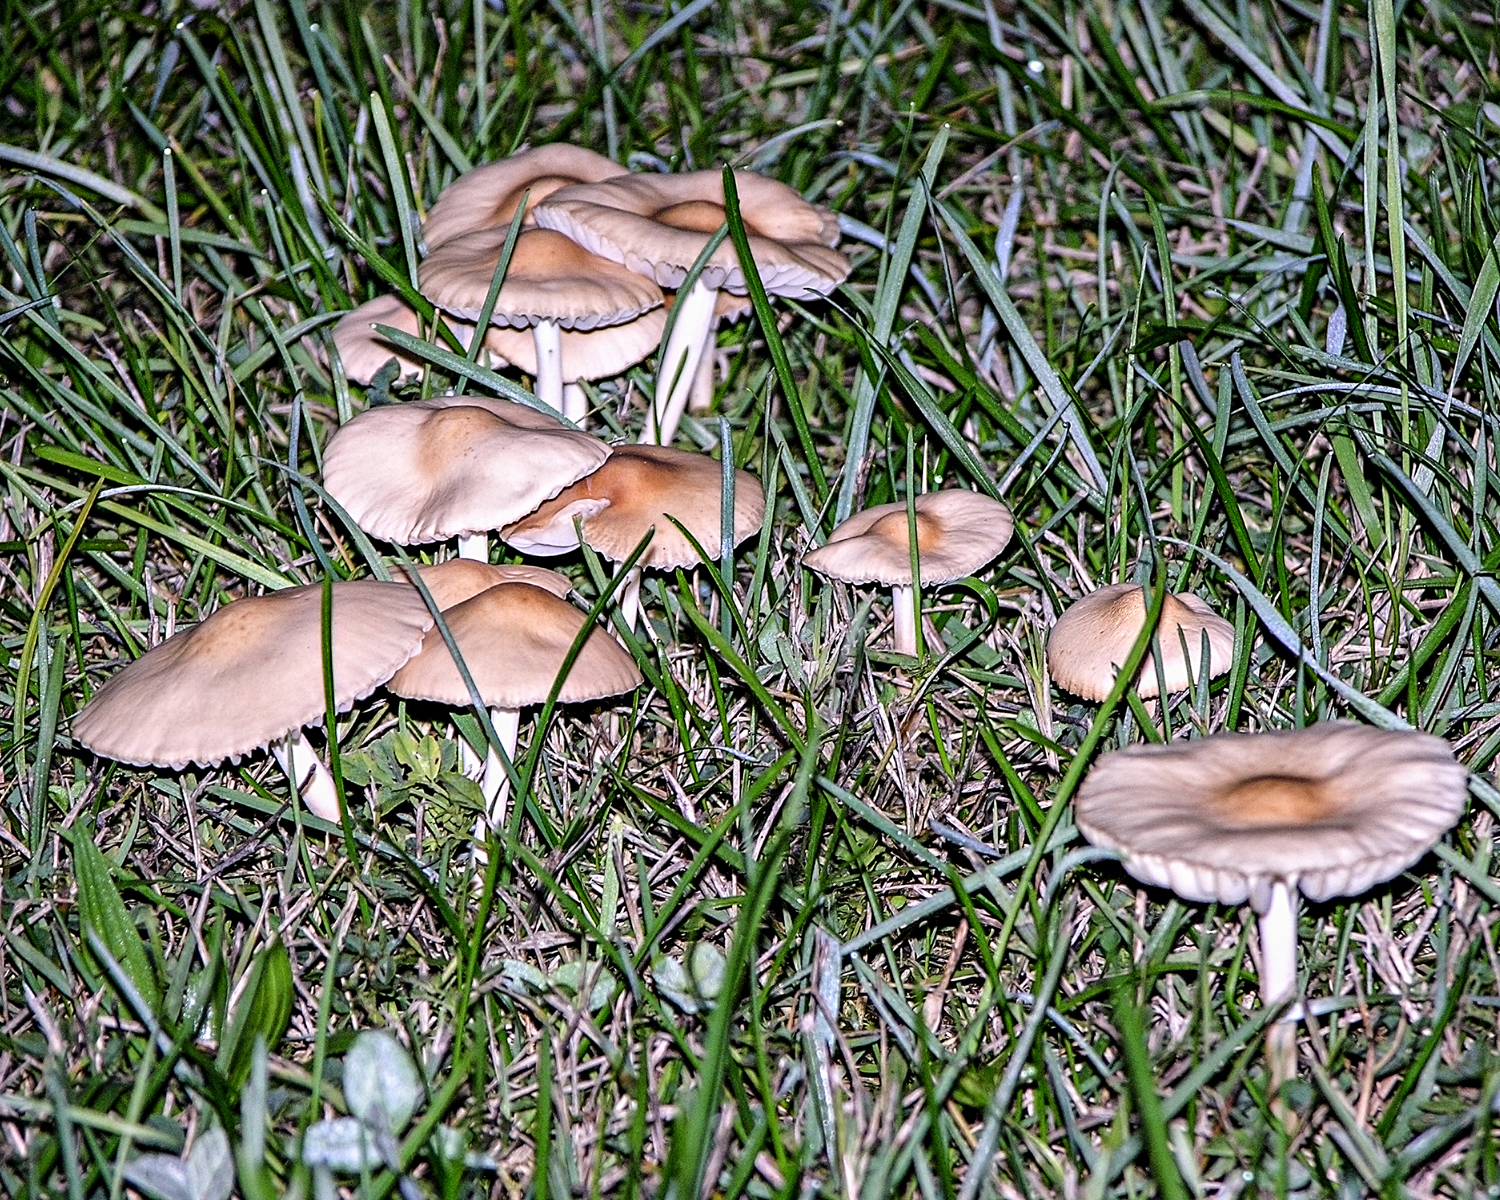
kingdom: Fungi
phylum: Basidiomycota
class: Agaricomycetes
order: Agaricales
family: Marasmiaceae
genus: Marasmius
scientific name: Marasmius oreades
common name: Fairy ring champignon
